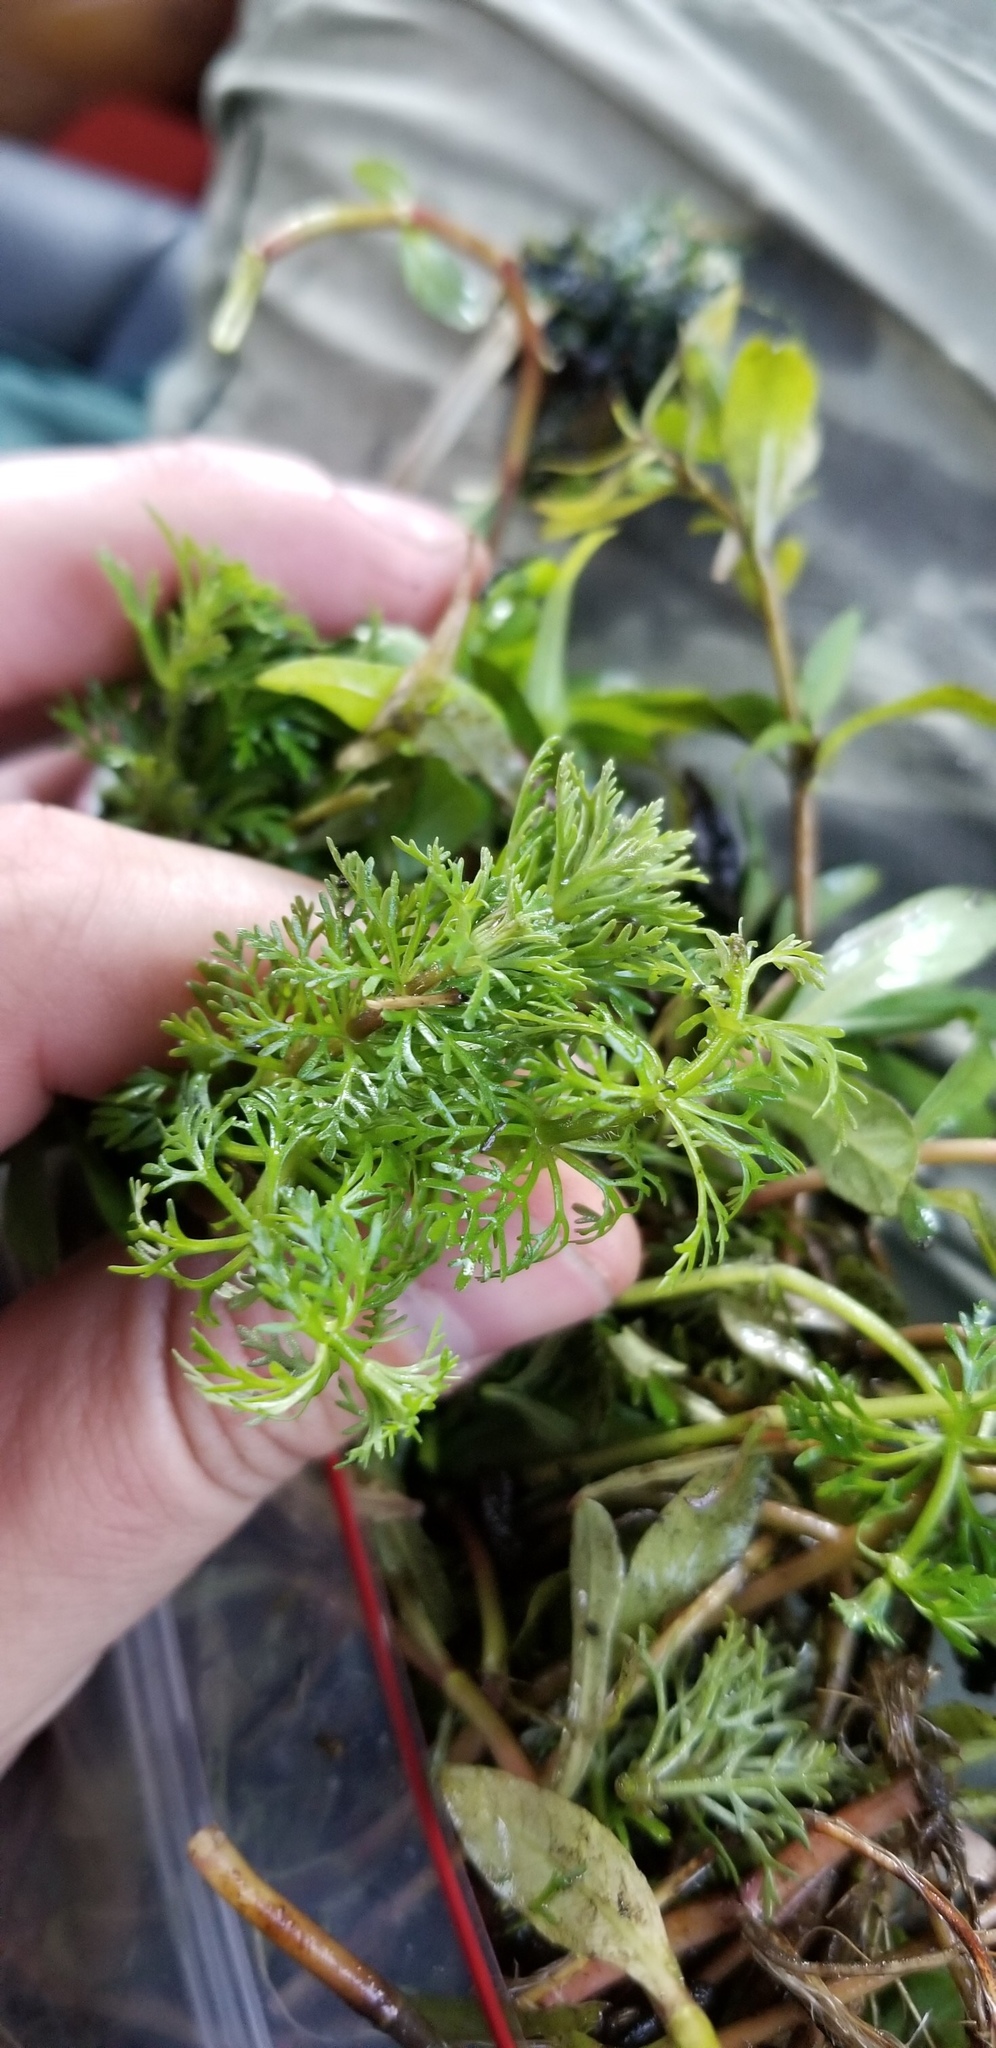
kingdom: Plantae
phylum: Tracheophyta
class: Magnoliopsida
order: Lamiales
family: Plantaginaceae
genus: Limnophila
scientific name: Limnophila sessiliflora
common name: Asian marshweed
